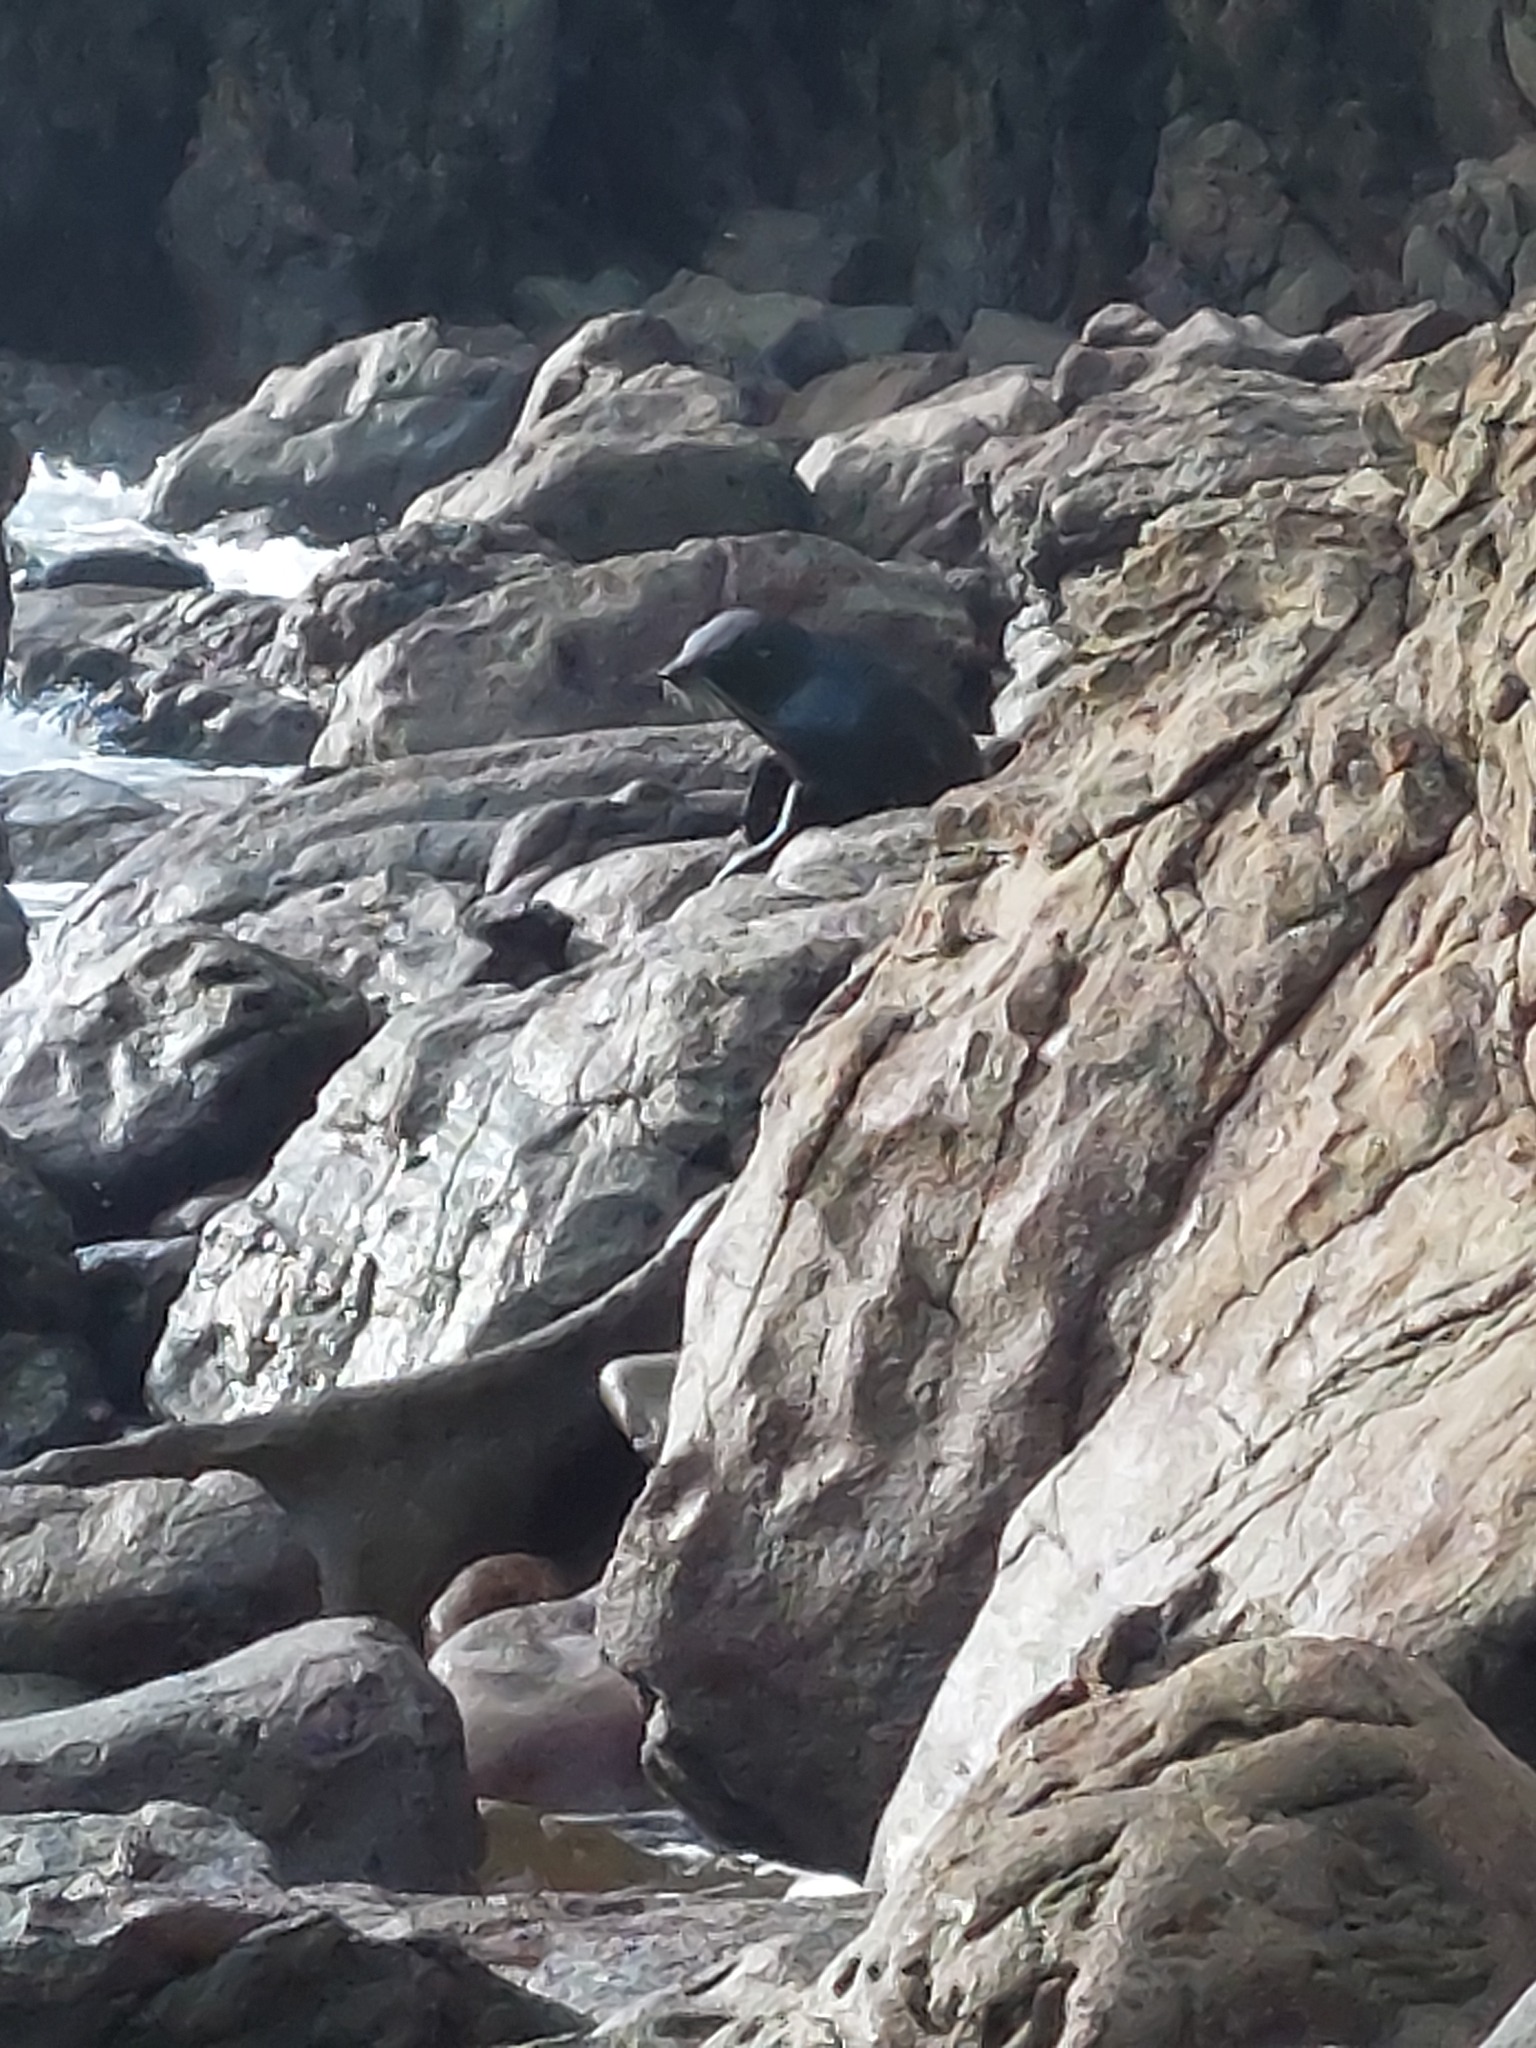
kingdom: Animalia
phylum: Chordata
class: Mammalia
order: Carnivora
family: Otariidae
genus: Arctocephalus
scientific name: Arctocephalus forsteri
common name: New zealand fur seal
